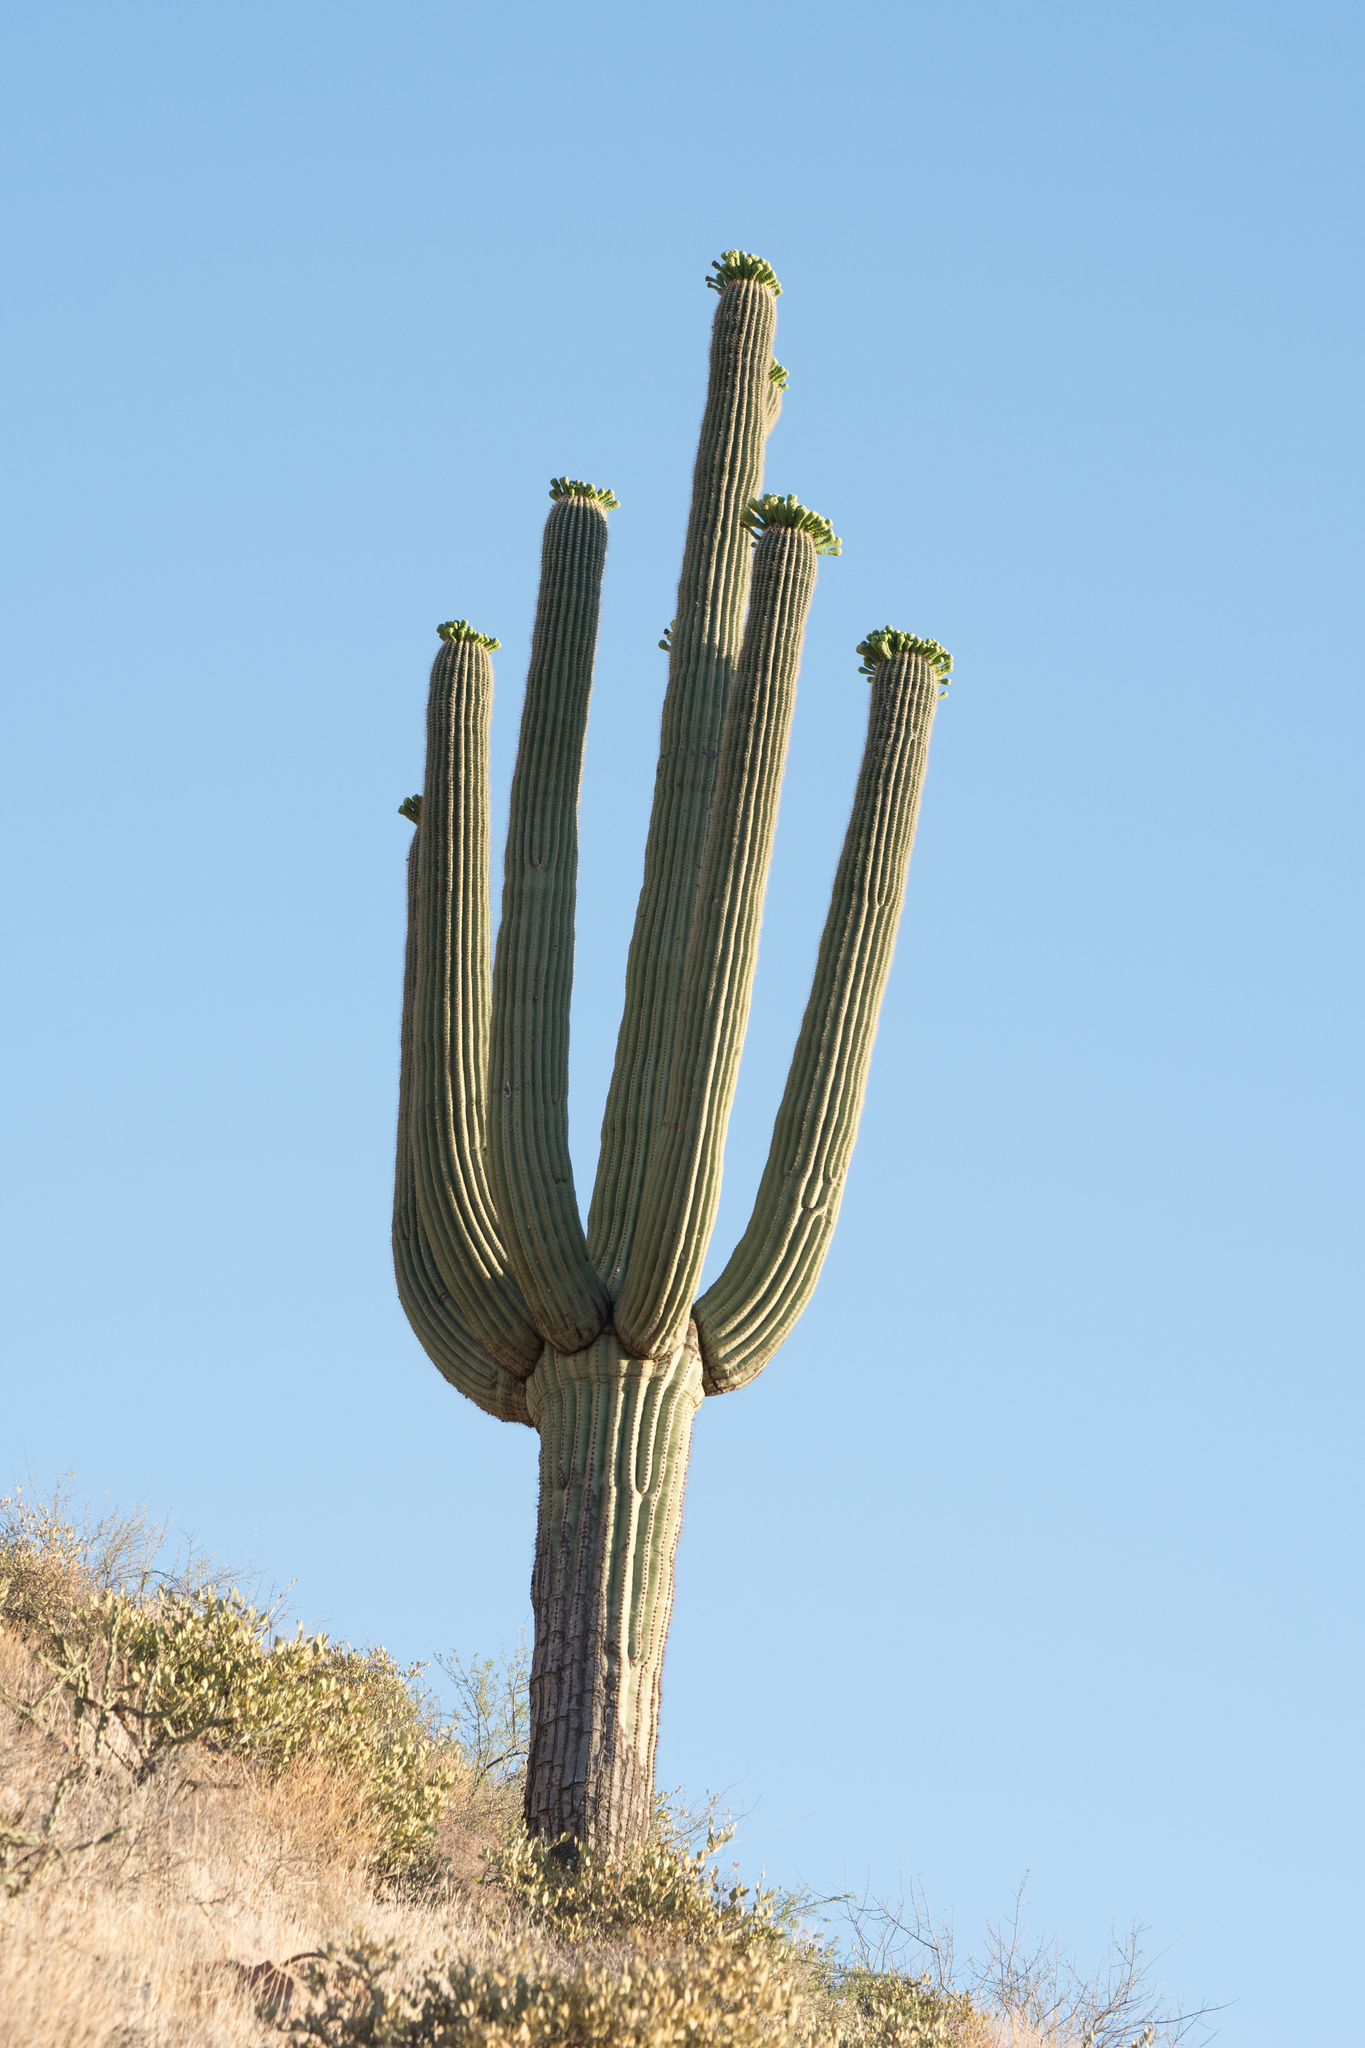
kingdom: Plantae
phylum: Tracheophyta
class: Magnoliopsida
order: Caryophyllales
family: Cactaceae
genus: Carnegiea
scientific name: Carnegiea gigantea
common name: Saguaro
